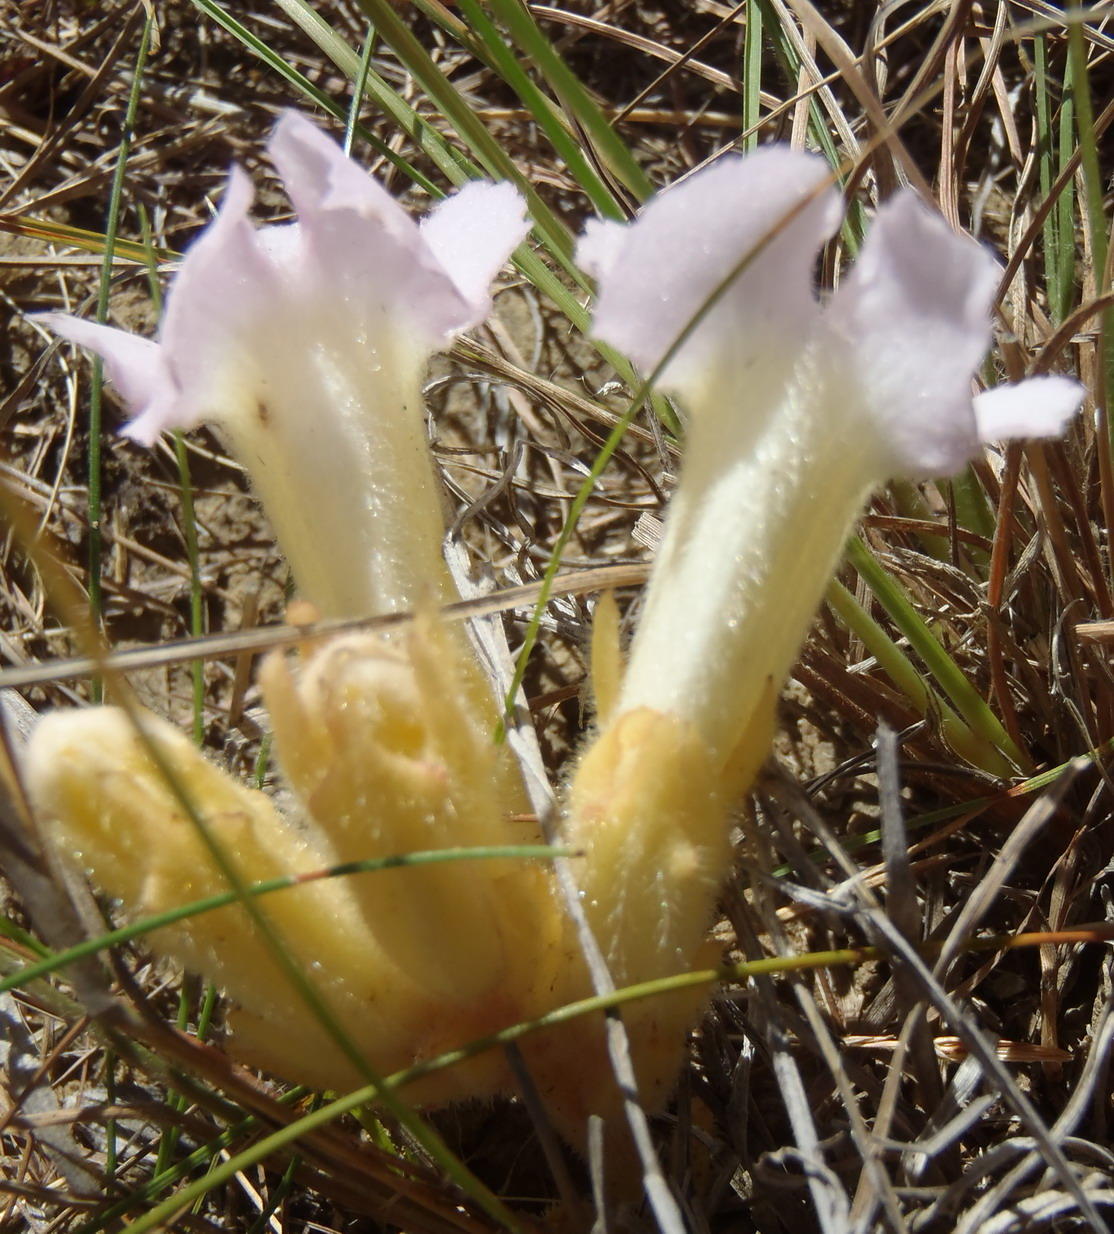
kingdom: Plantae
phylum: Tracheophyta
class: Magnoliopsida
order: Lamiales
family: Orobanchaceae
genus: Harveya
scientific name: Harveya purpurea
